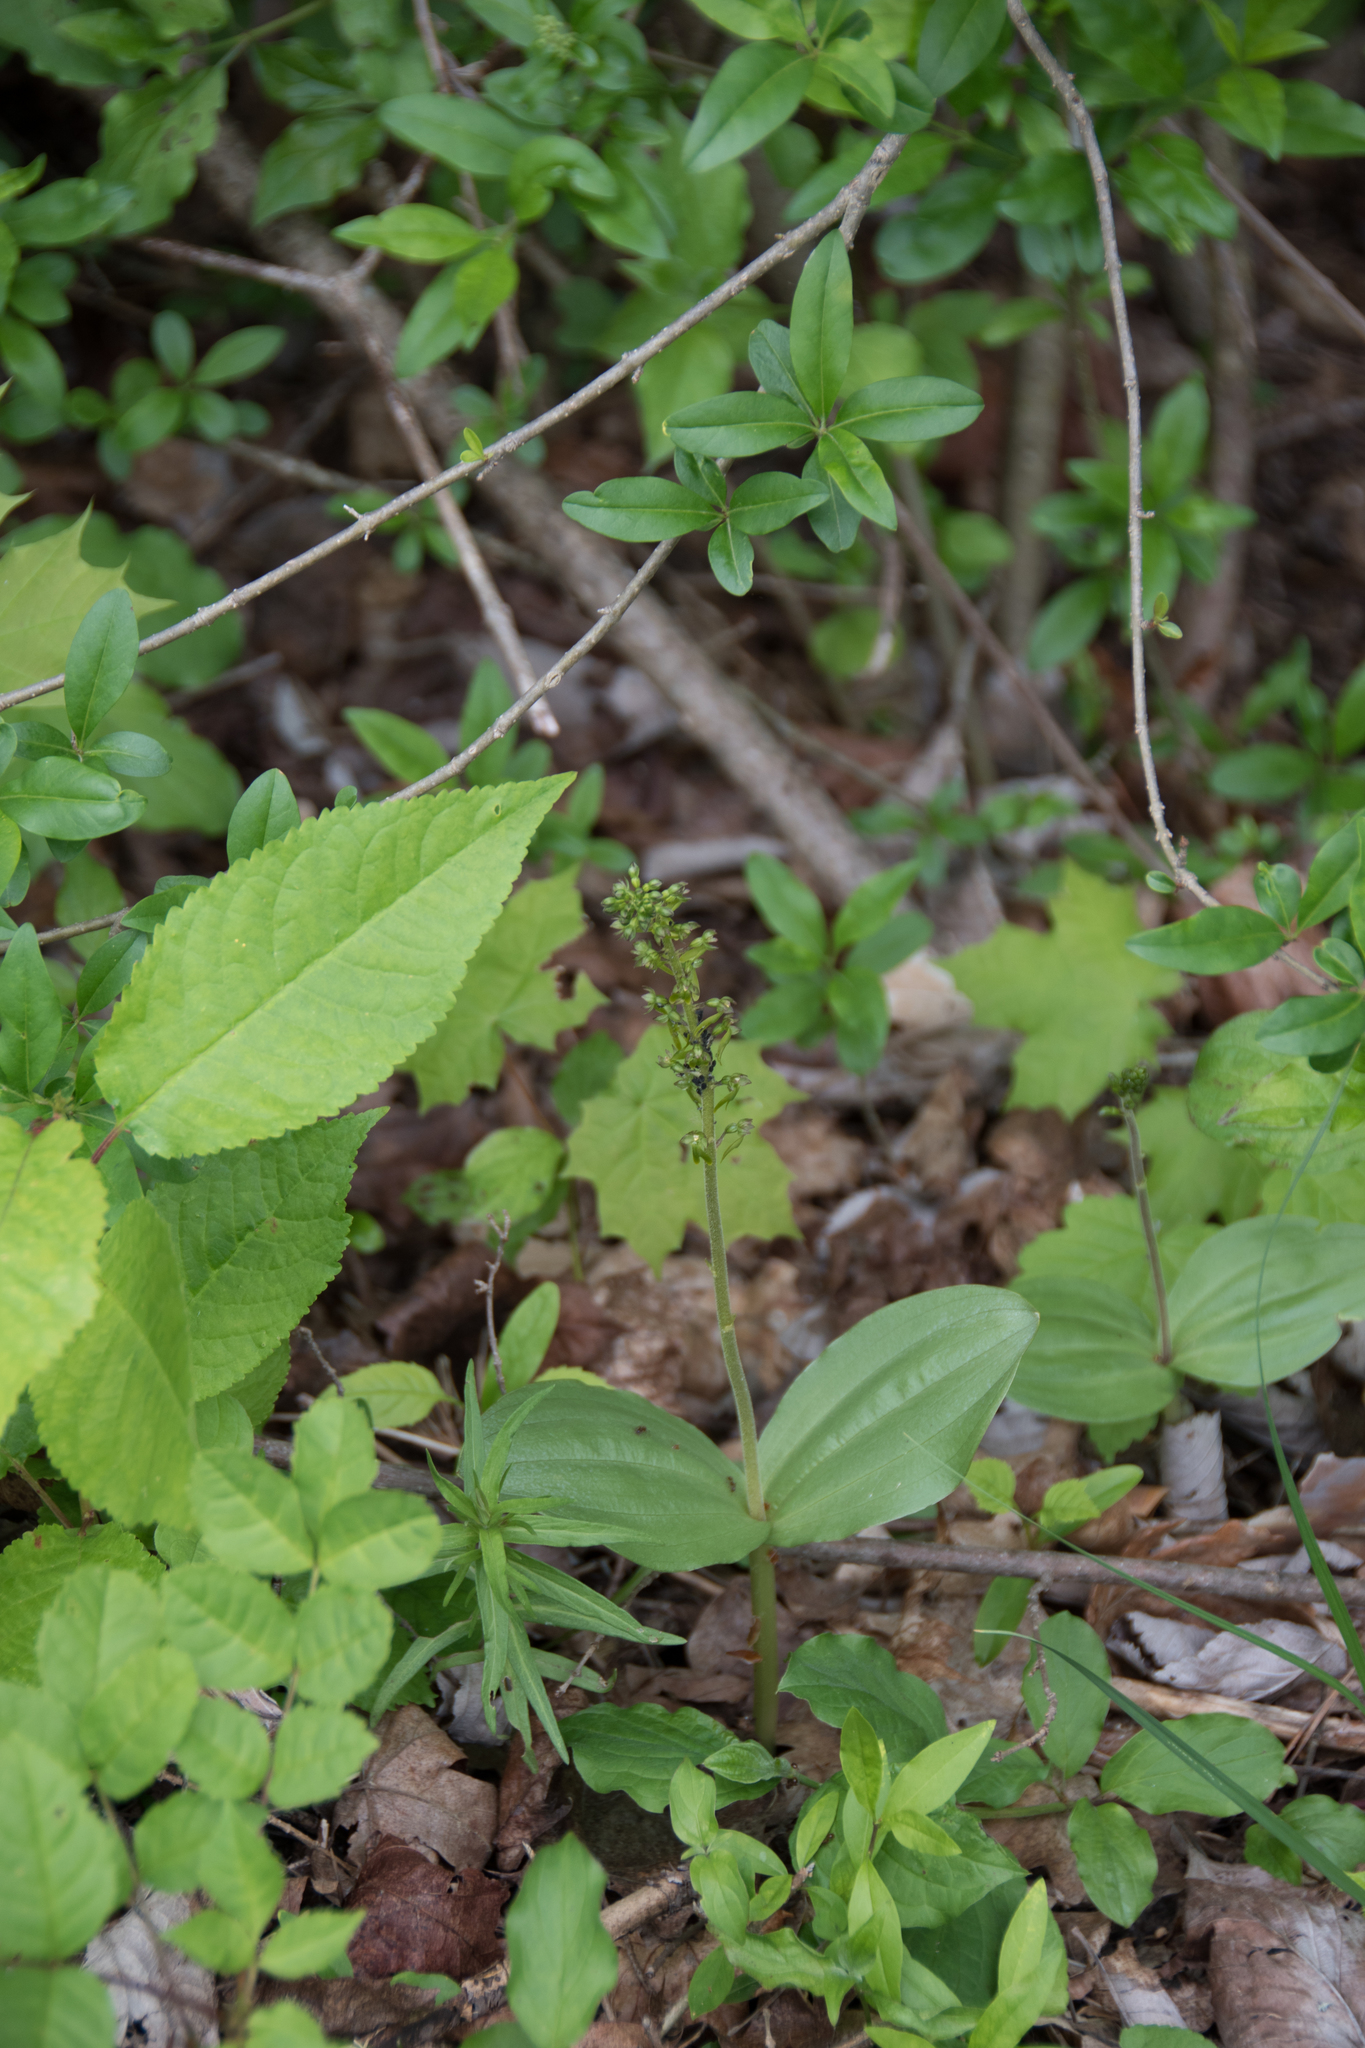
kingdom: Plantae
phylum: Tracheophyta
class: Liliopsida
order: Asparagales
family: Orchidaceae
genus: Neottia
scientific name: Neottia ovata
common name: Common twayblade
